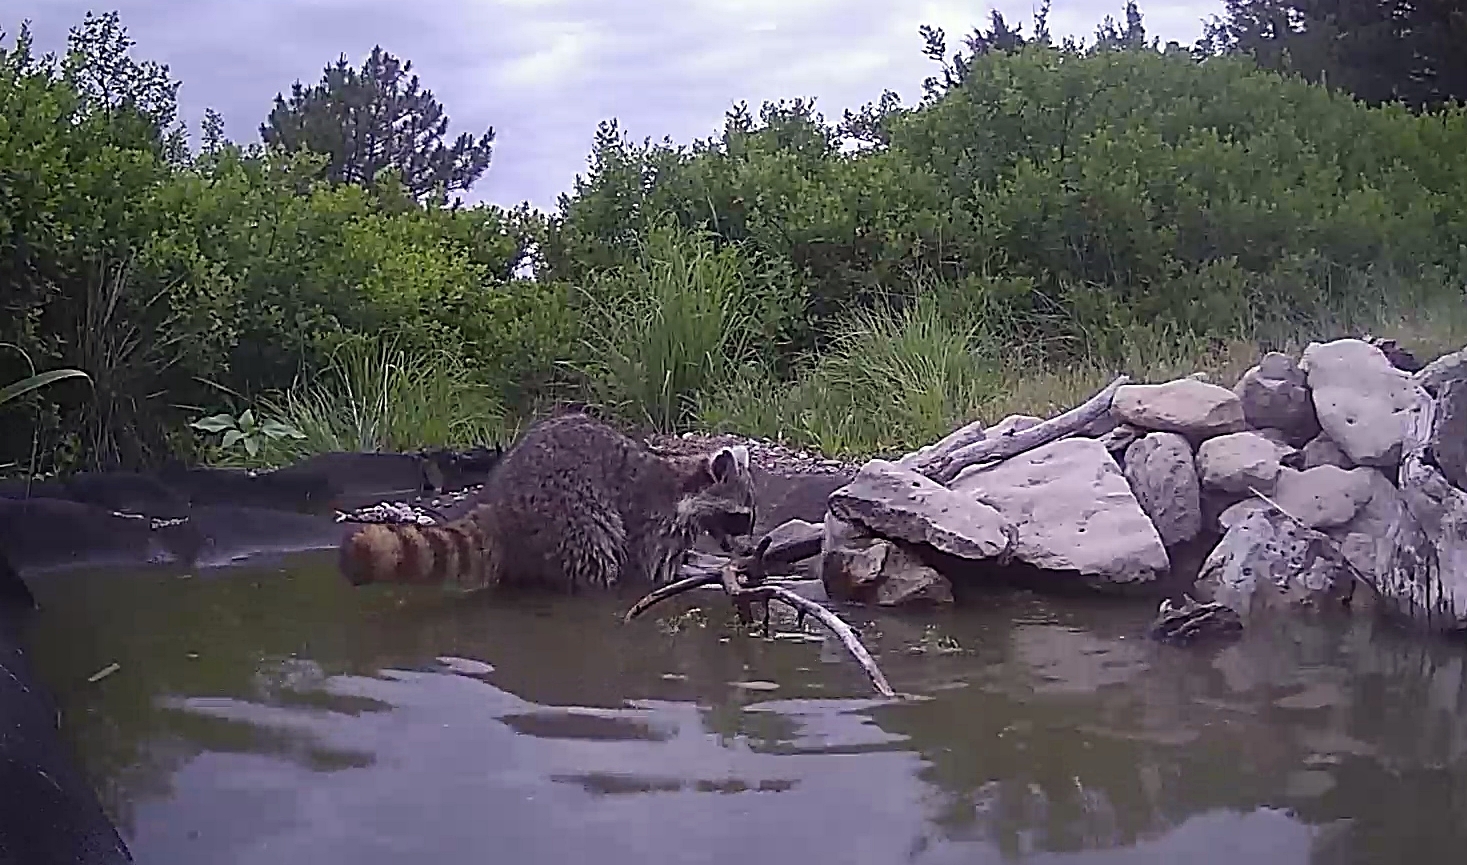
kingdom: Animalia
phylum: Chordata
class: Mammalia
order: Carnivora
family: Procyonidae
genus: Procyon
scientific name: Procyon lotor
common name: Raccoon
